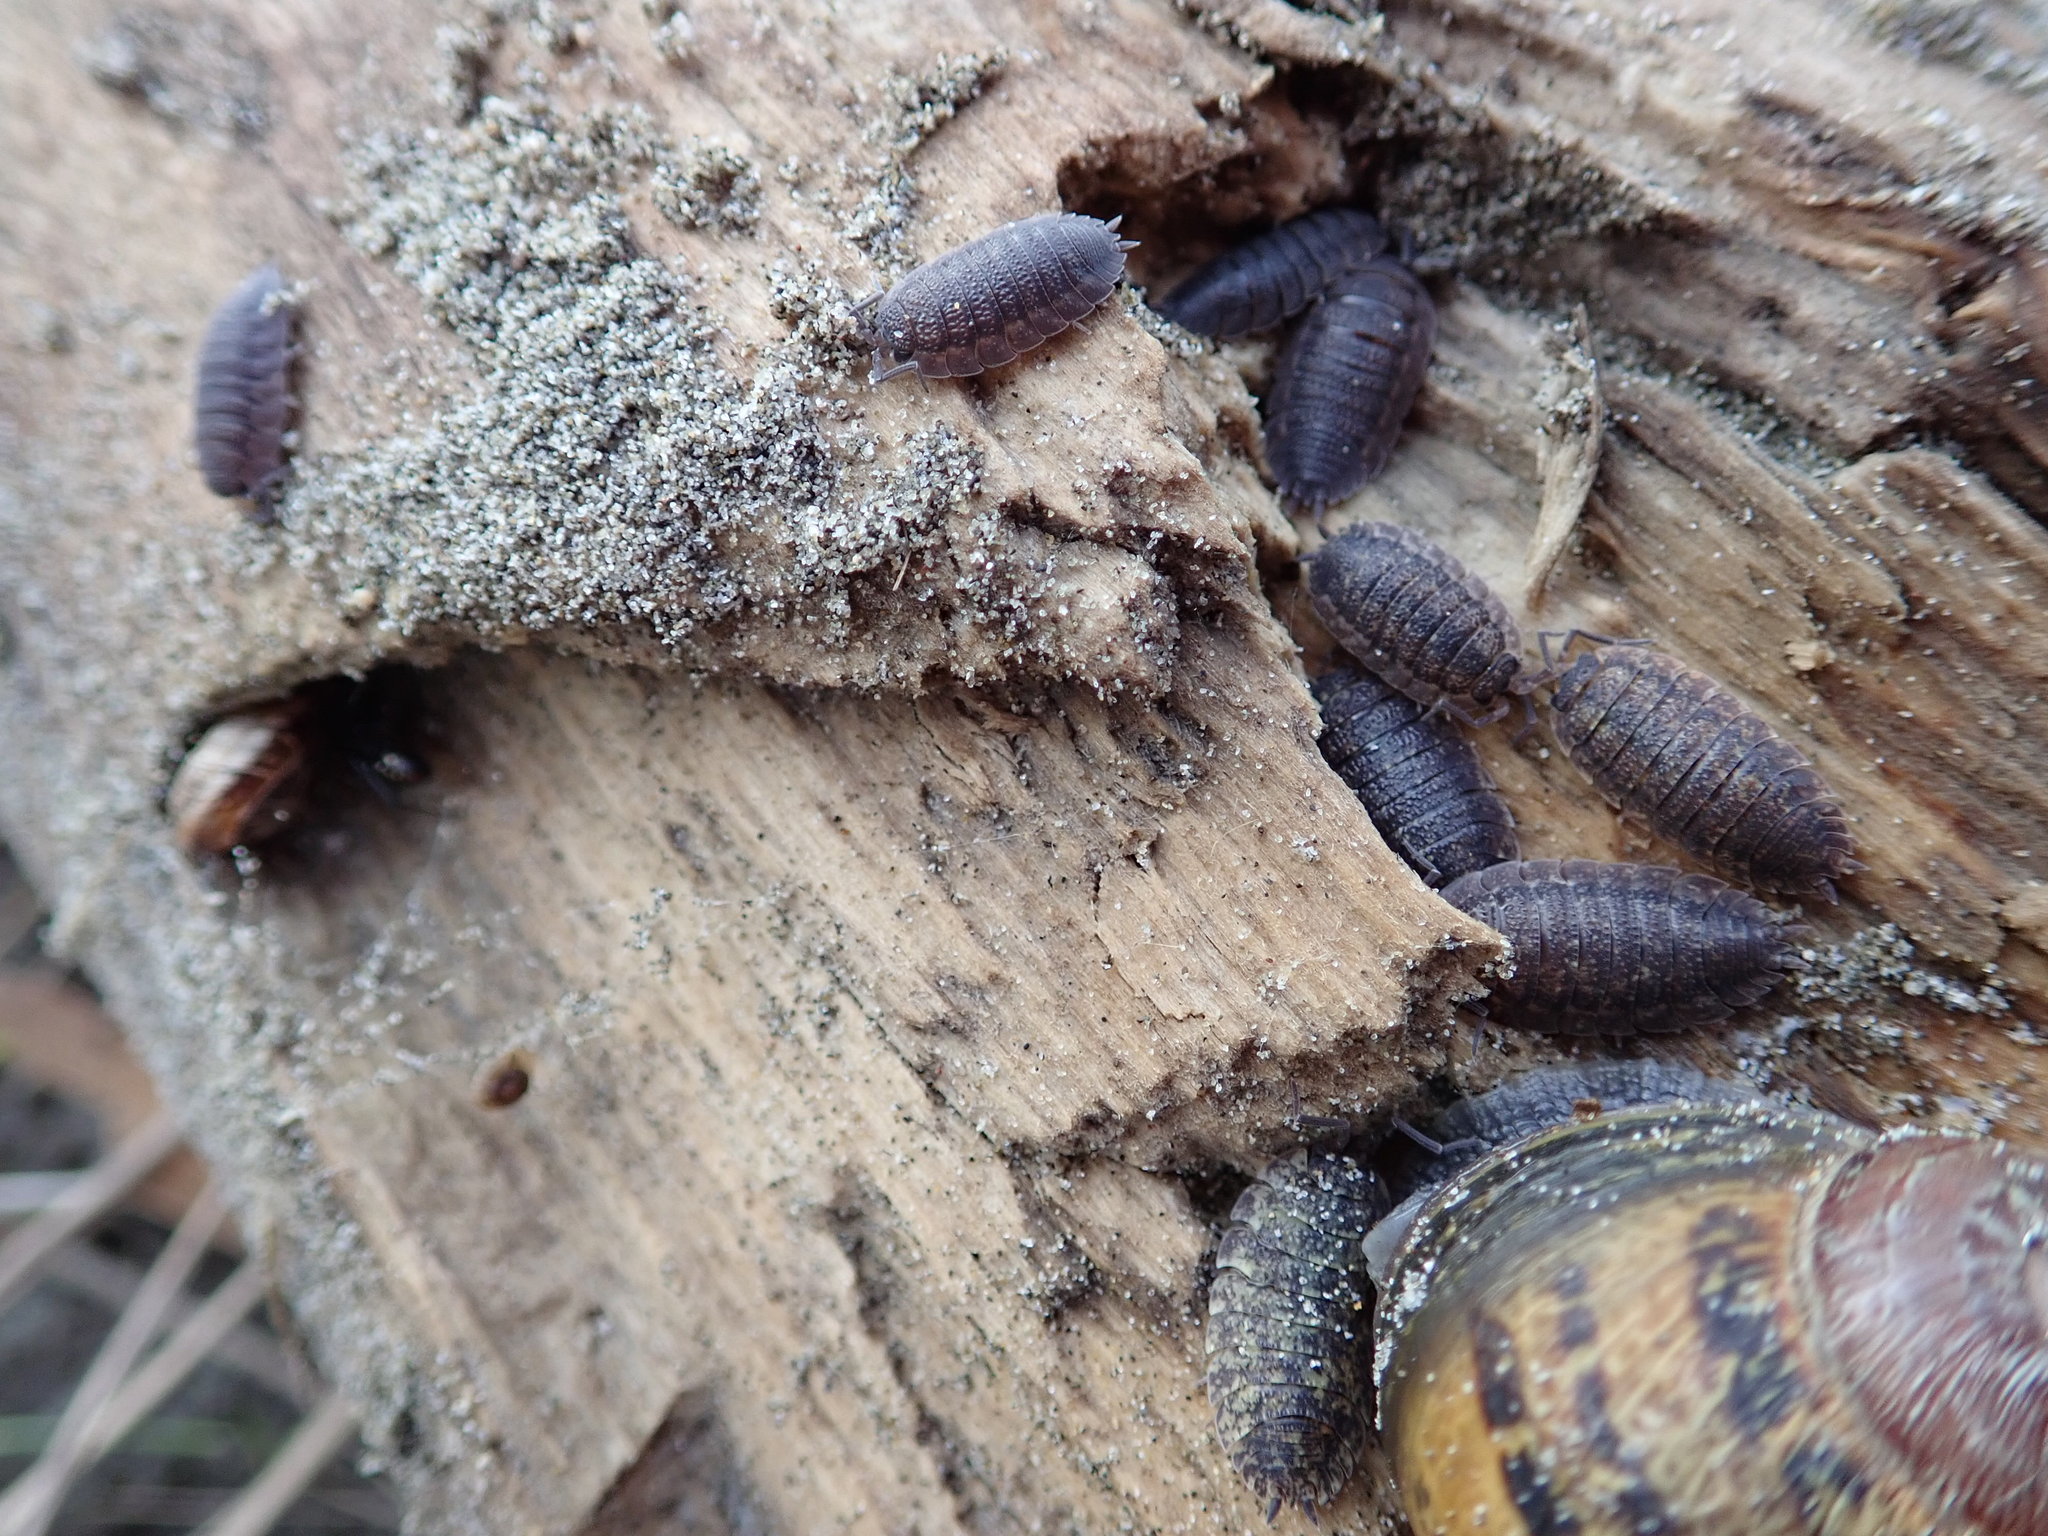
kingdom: Animalia
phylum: Arthropoda
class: Malacostraca
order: Isopoda
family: Porcellionidae
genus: Porcellio
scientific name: Porcellio scaber
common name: Common rough woodlouse
